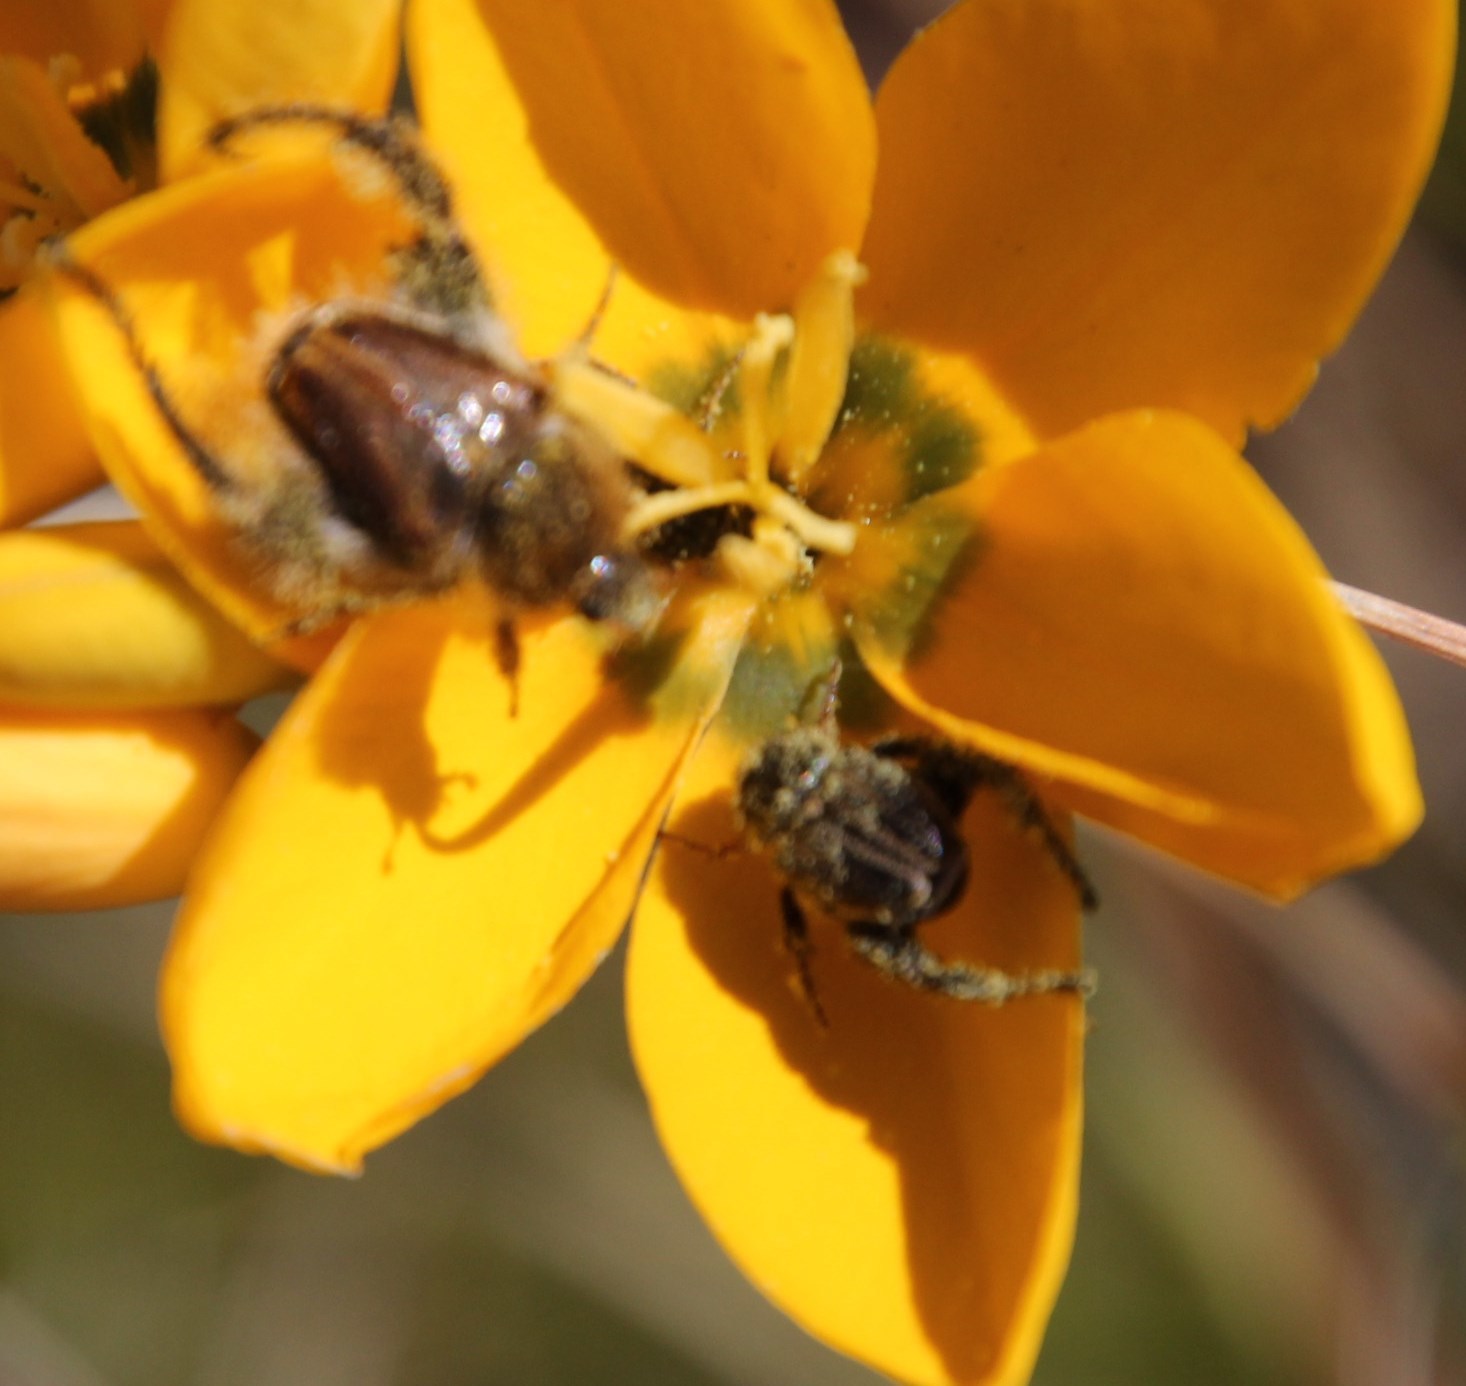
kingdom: Plantae
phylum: Tracheophyta
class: Liliopsida
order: Asparagales
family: Iridaceae
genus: Ixia
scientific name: Ixia dubia
